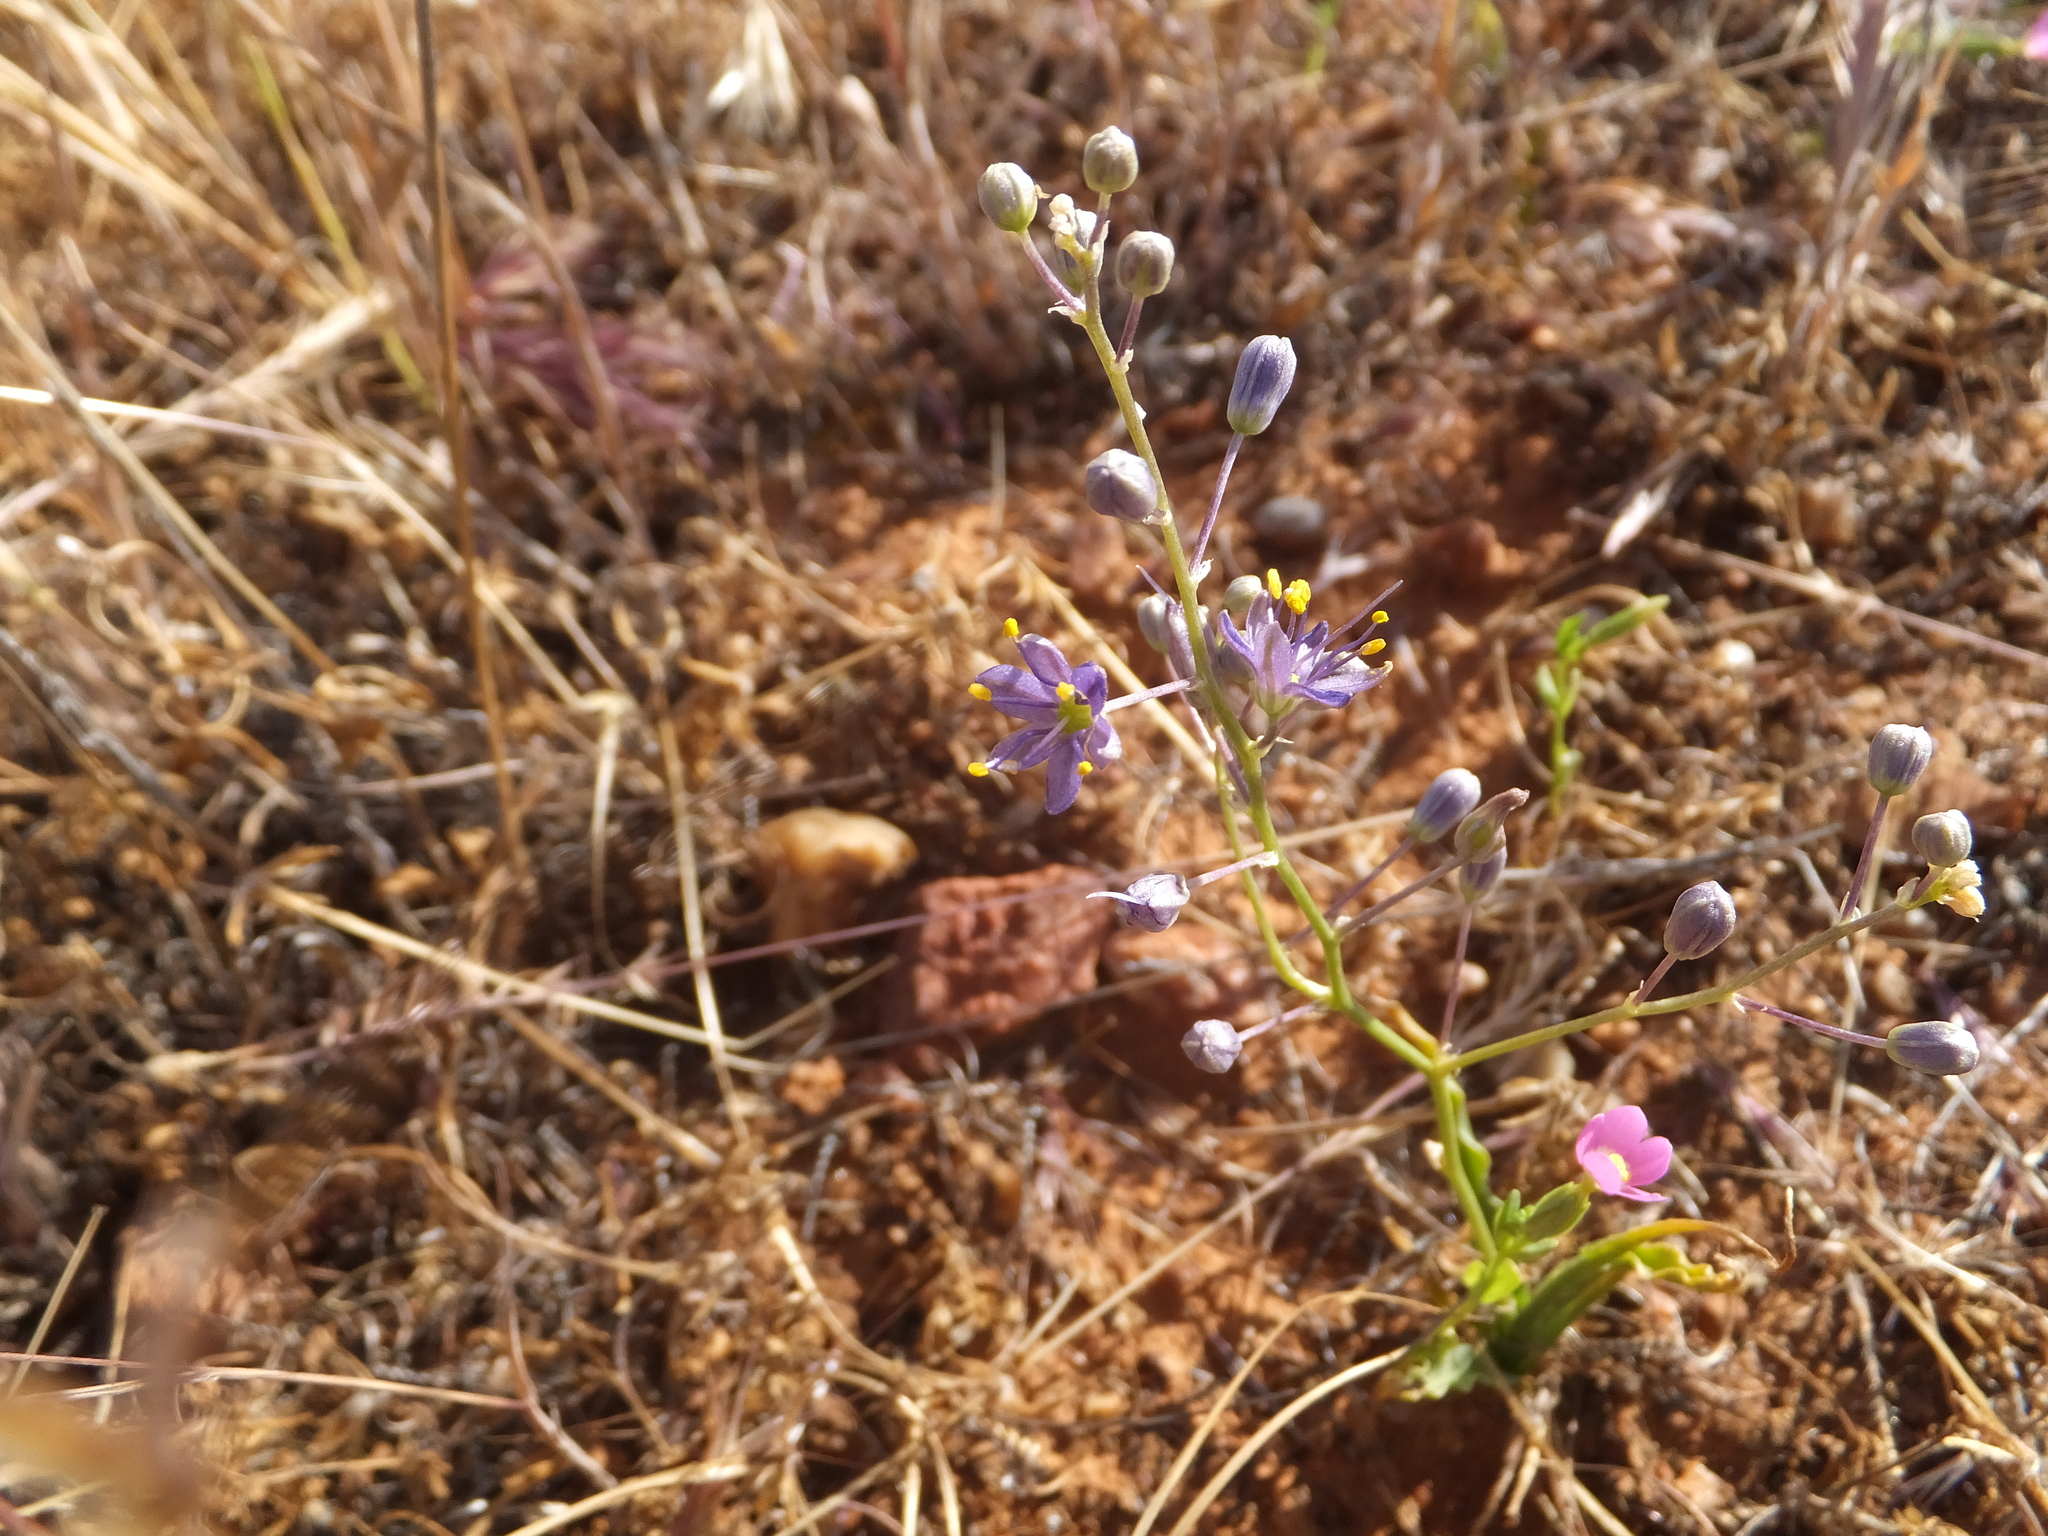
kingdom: Plantae
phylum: Tracheophyta
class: Liliopsida
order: Asparagales
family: Asparagaceae
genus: Hooveria
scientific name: Hooveria purpurea
